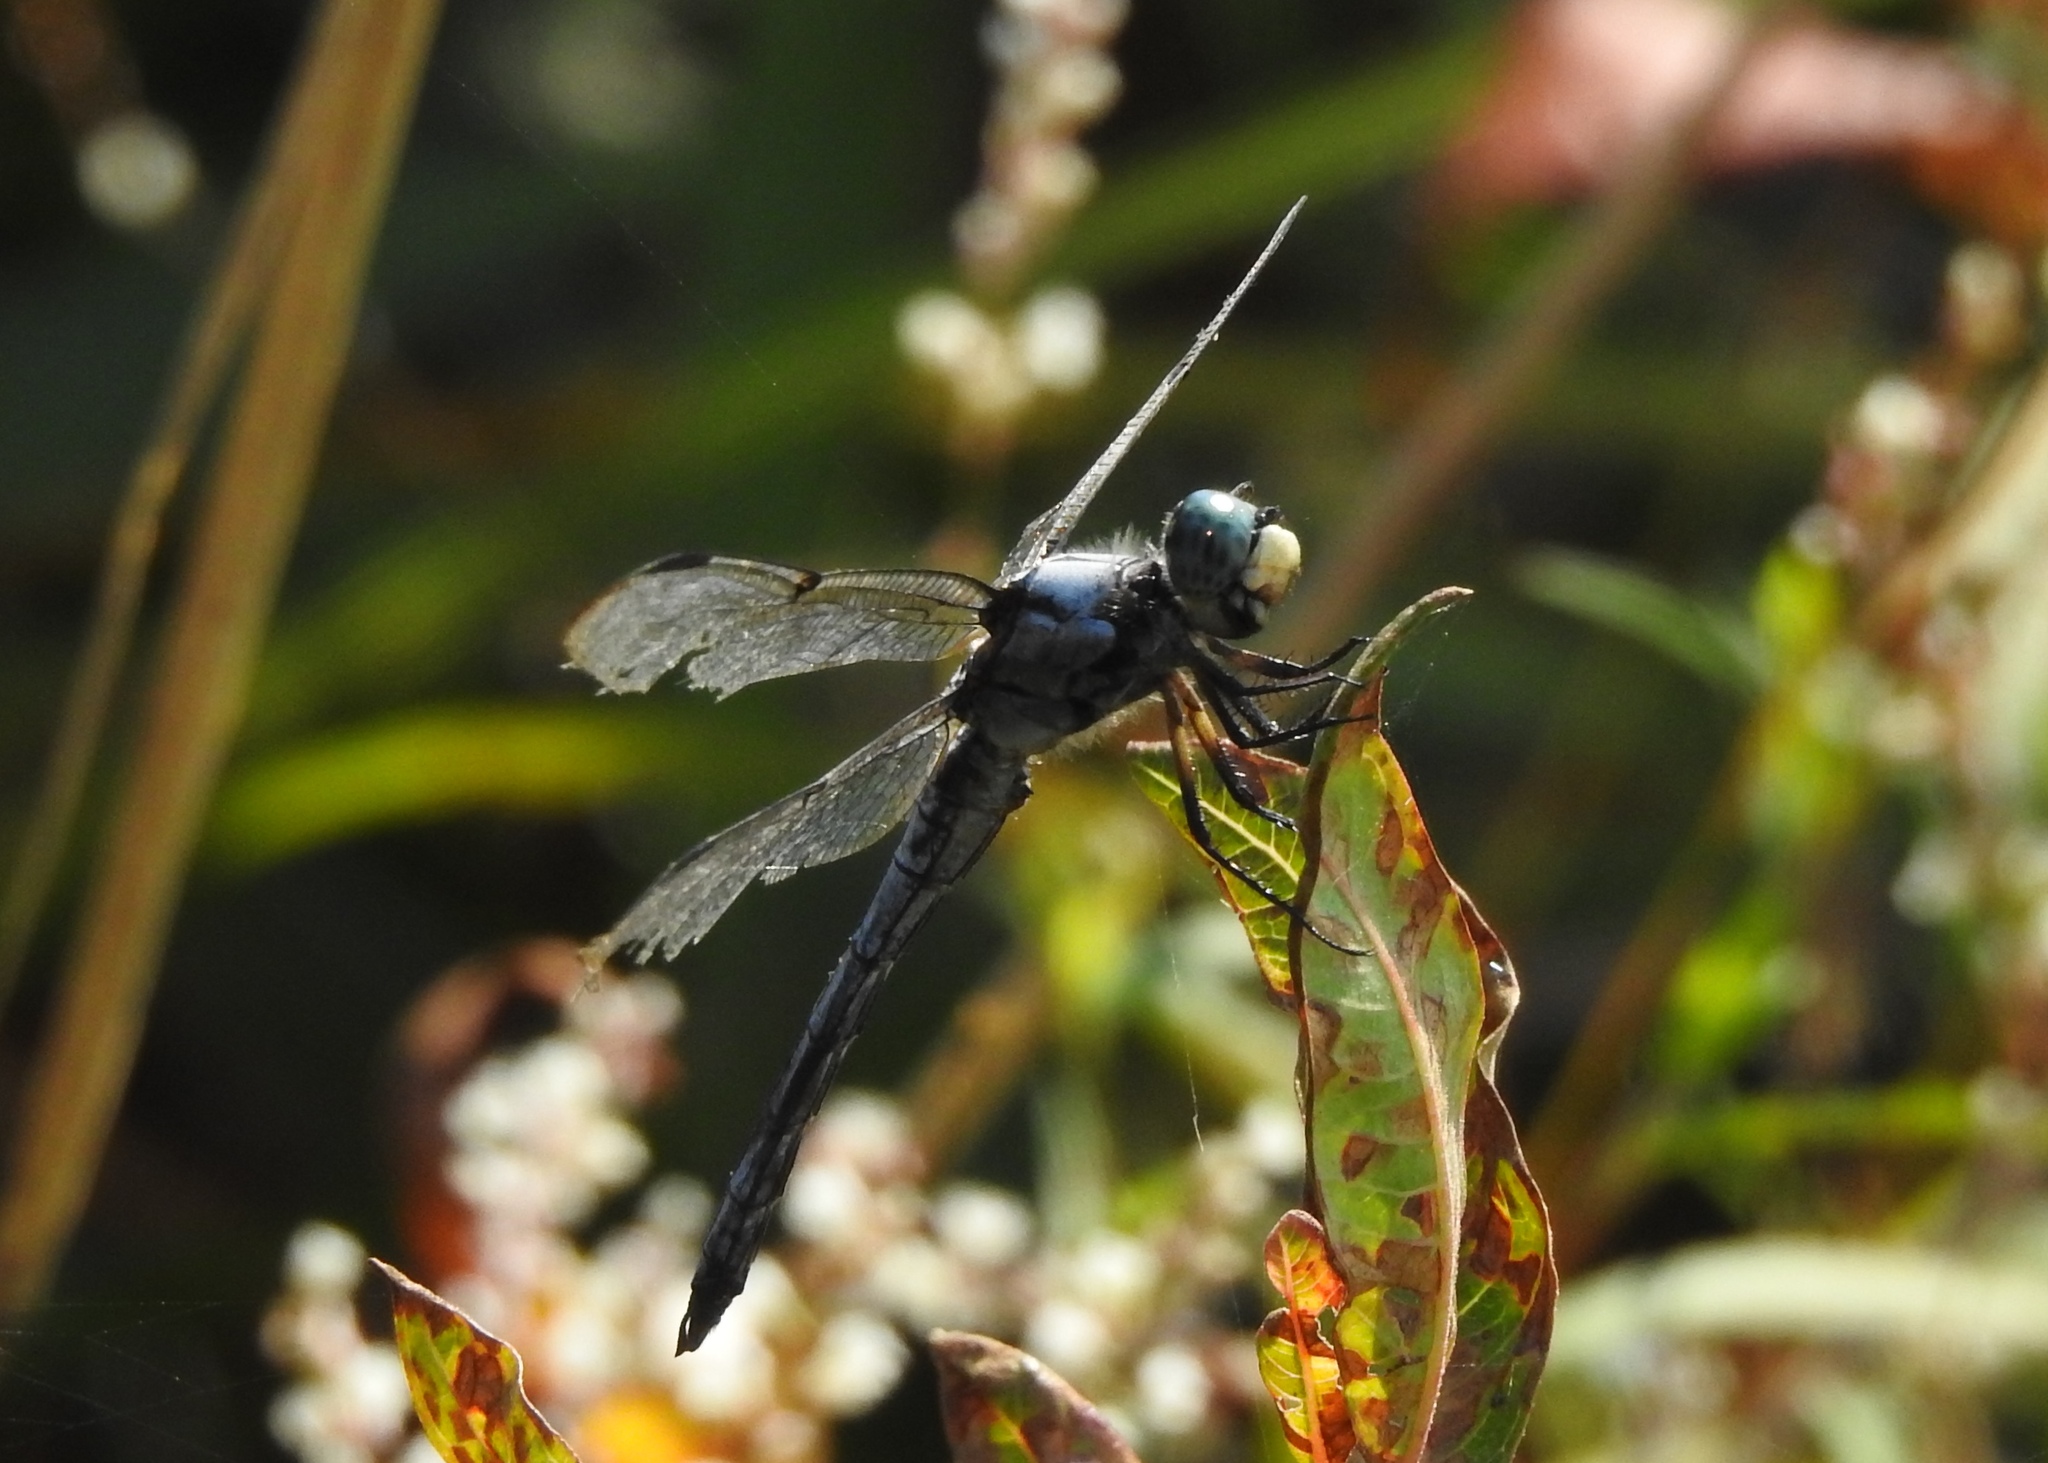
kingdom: Animalia
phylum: Arthropoda
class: Insecta
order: Odonata
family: Libellulidae
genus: Libellula
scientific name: Libellula vibrans
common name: Great blue skimmer
